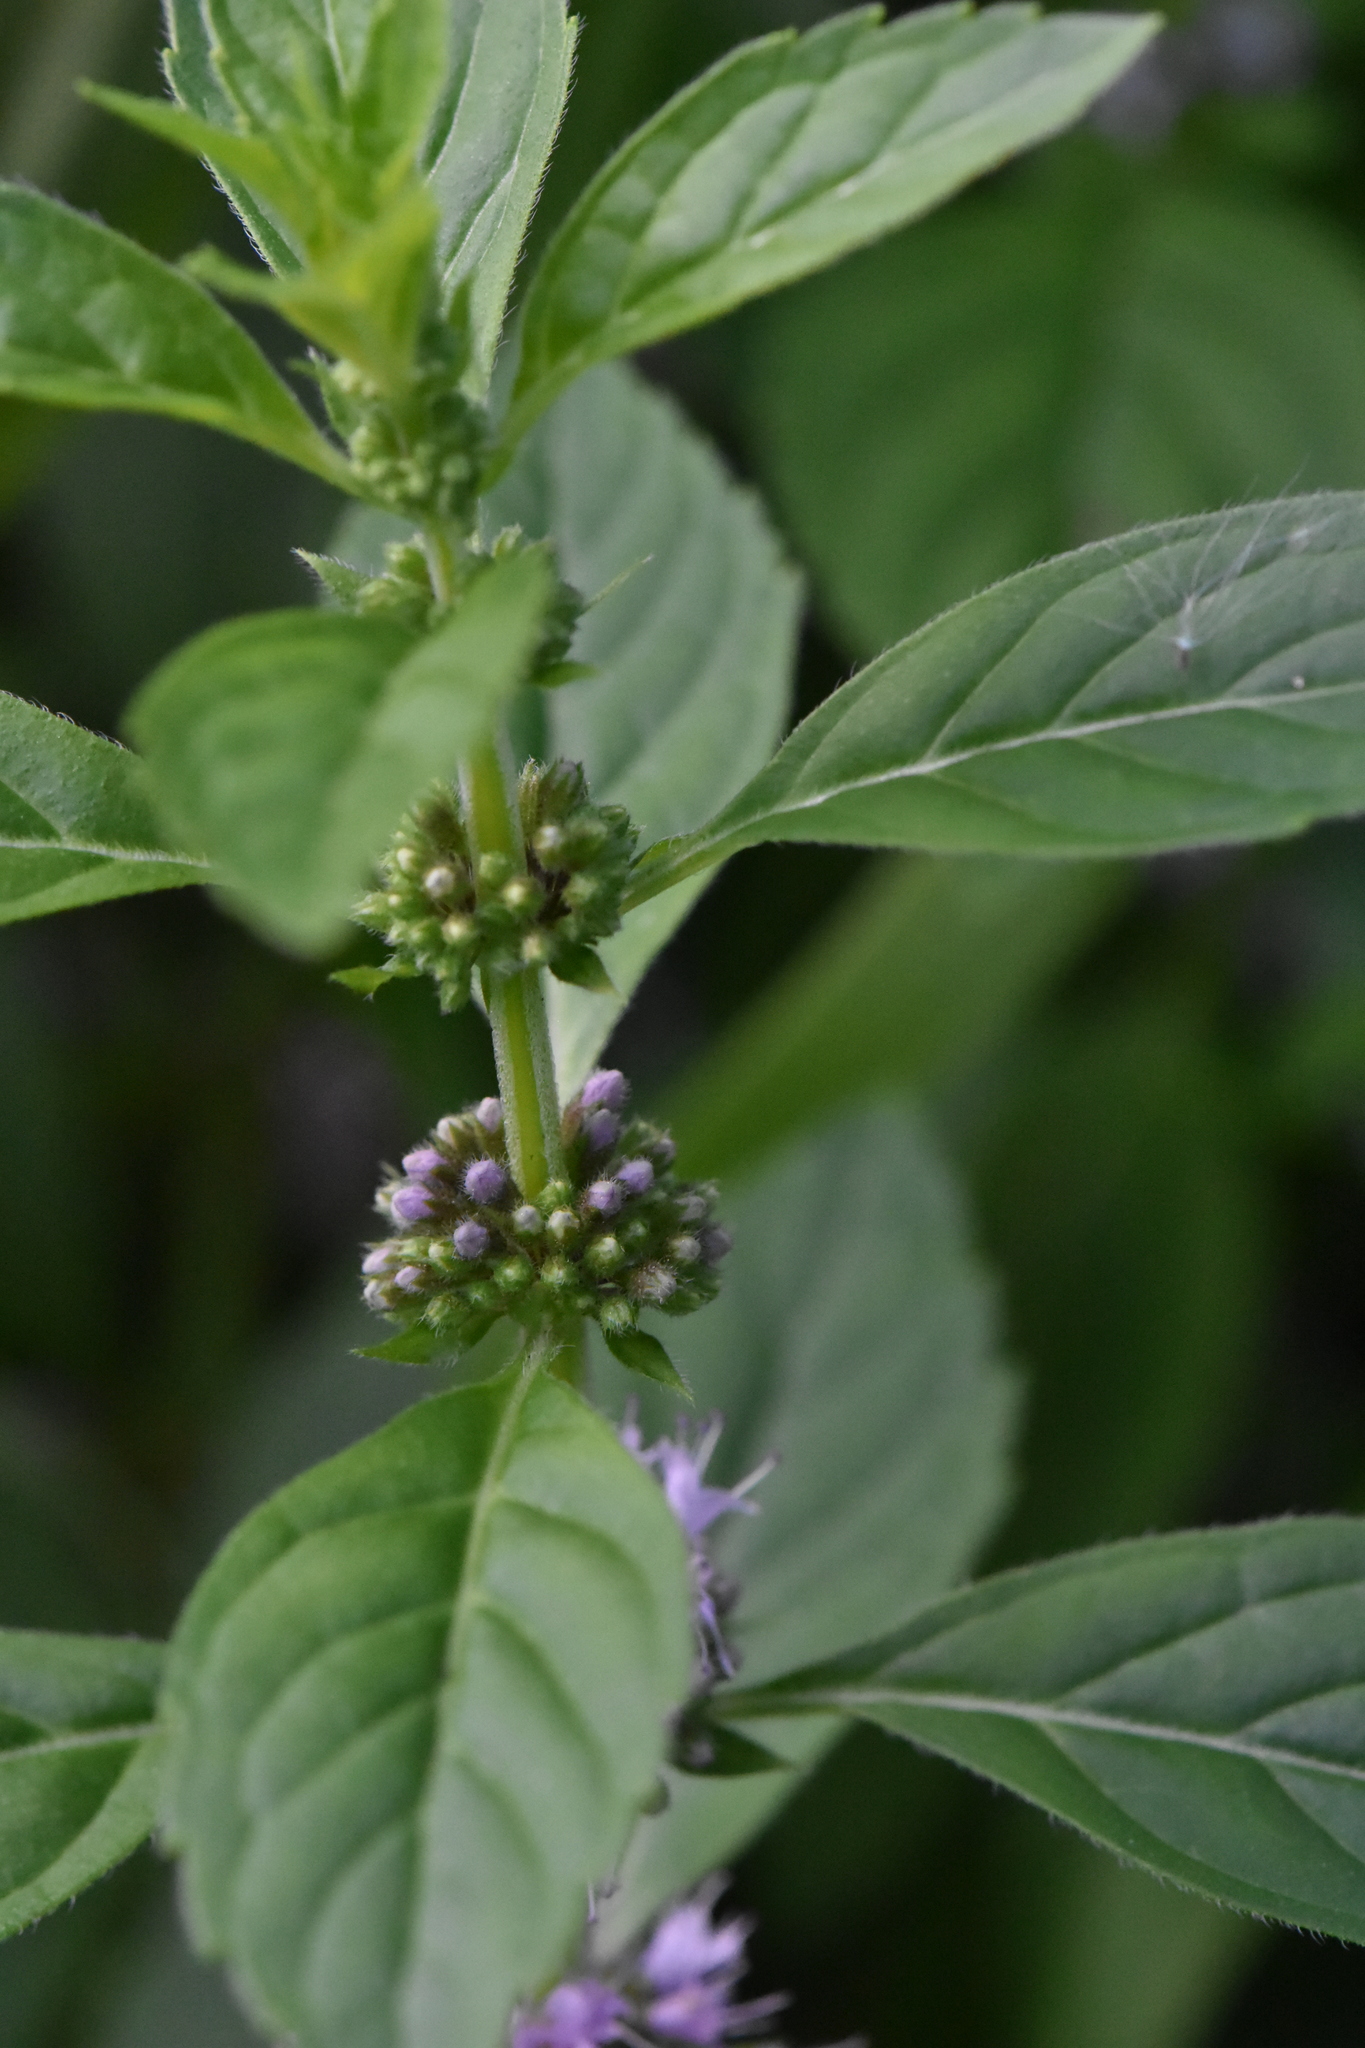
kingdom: Plantae
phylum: Tracheophyta
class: Magnoliopsida
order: Lamiales
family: Lamiaceae
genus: Mentha
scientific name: Mentha arvensis
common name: Corn mint
